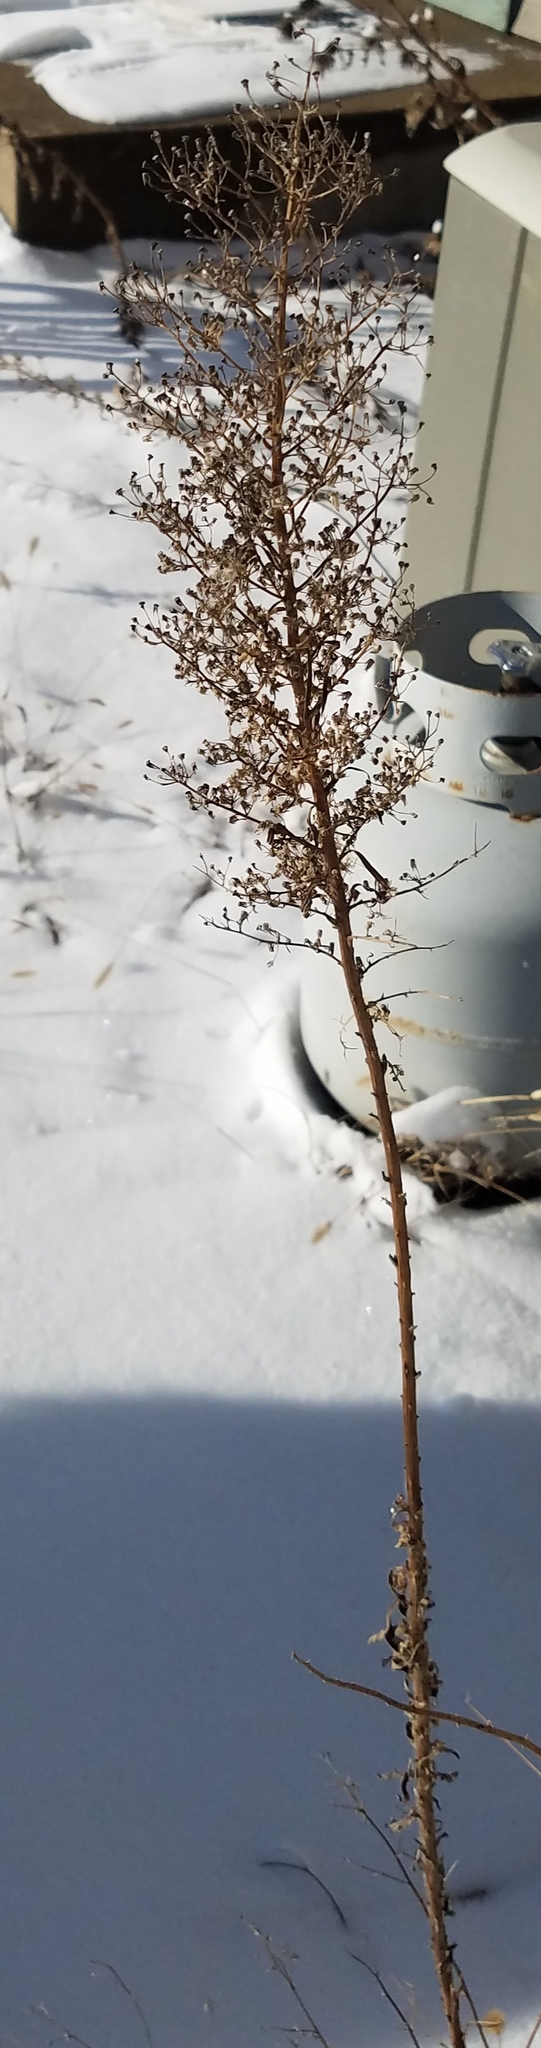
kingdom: Plantae
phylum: Tracheophyta
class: Magnoliopsida
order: Asterales
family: Asteraceae
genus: Erigeron
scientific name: Erigeron canadensis
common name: Canadian fleabane
